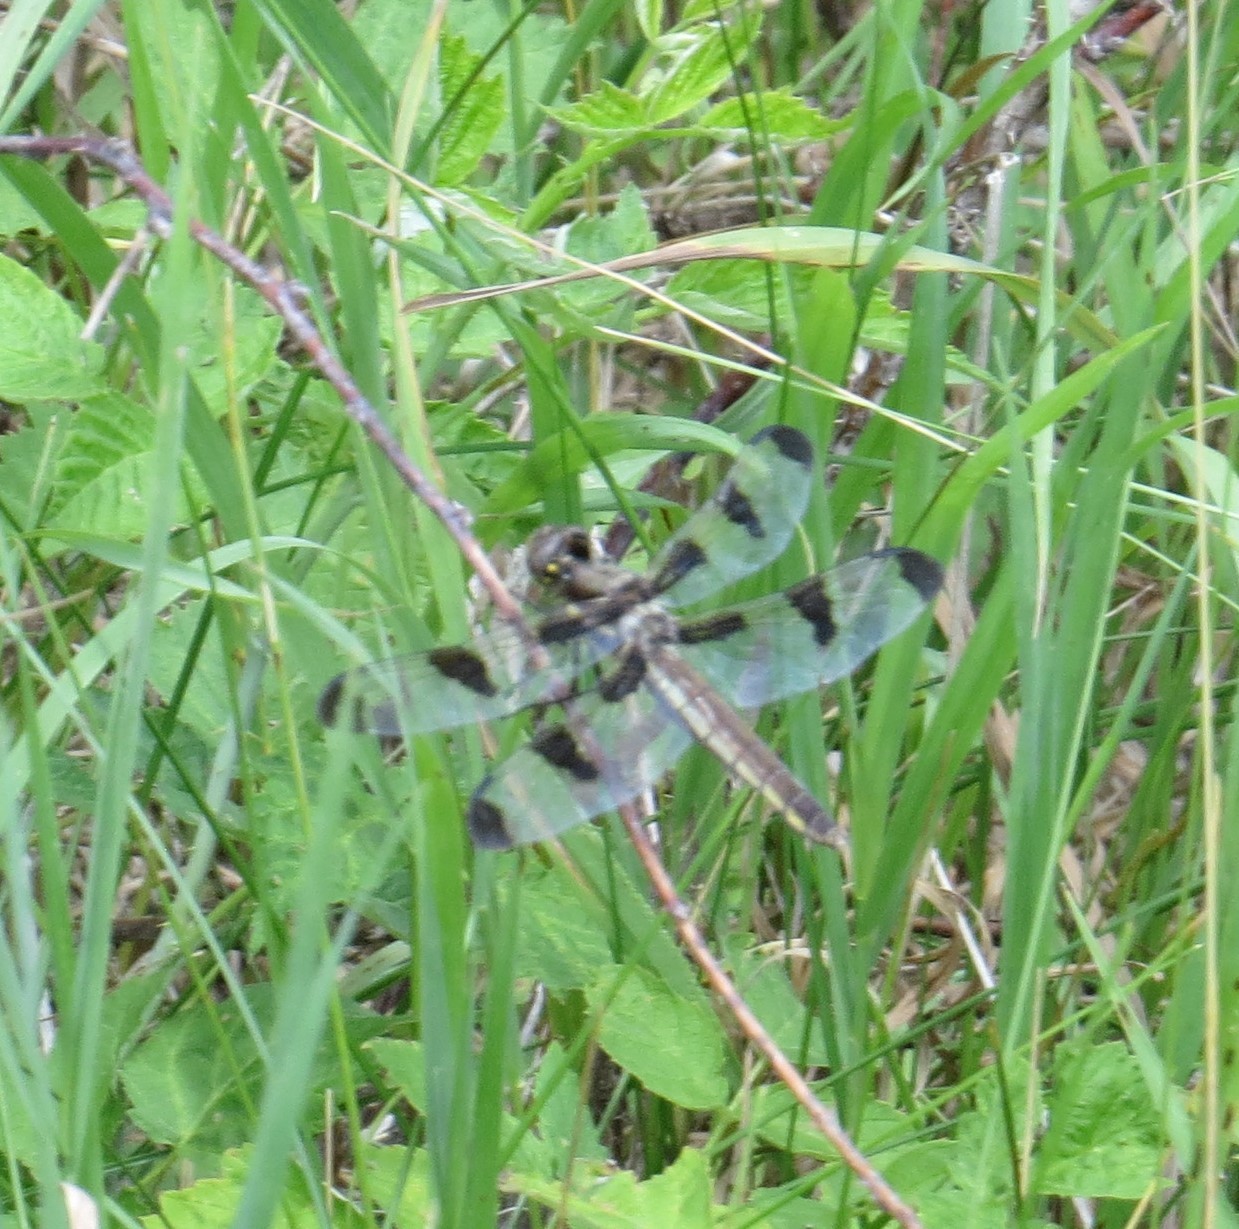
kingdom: Animalia
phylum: Arthropoda
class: Insecta
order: Odonata
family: Libellulidae
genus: Libellula
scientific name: Libellula pulchella
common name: Twelve-spotted skimmer
